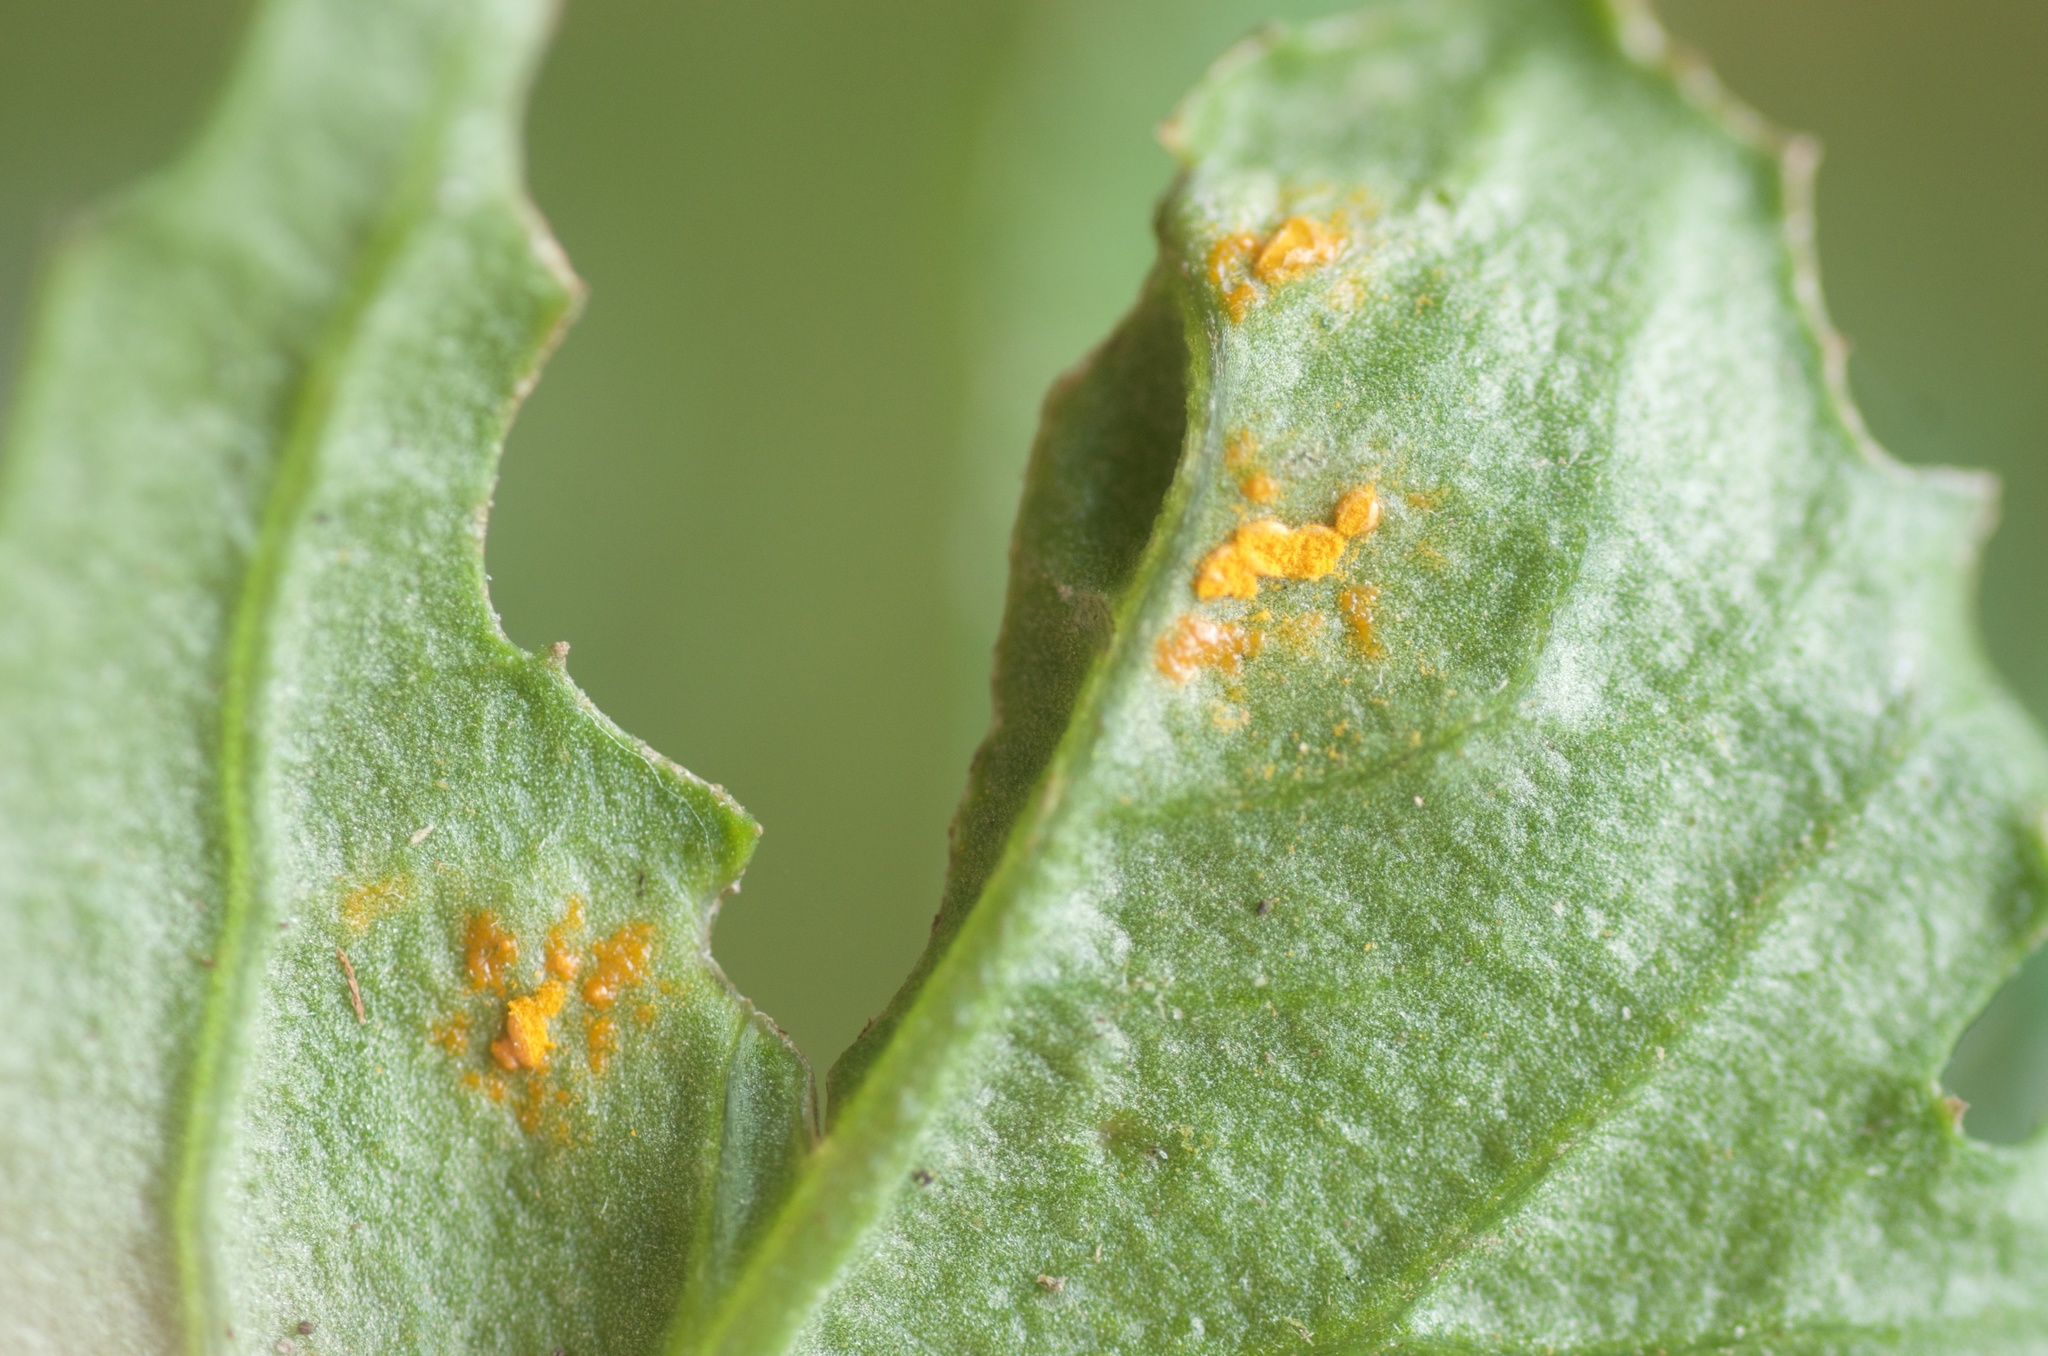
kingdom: Fungi
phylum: Basidiomycota
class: Pucciniomycetes
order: Pucciniales
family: Coleosporiaceae
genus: Coleosporium
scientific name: Coleosporium tussilaginis
